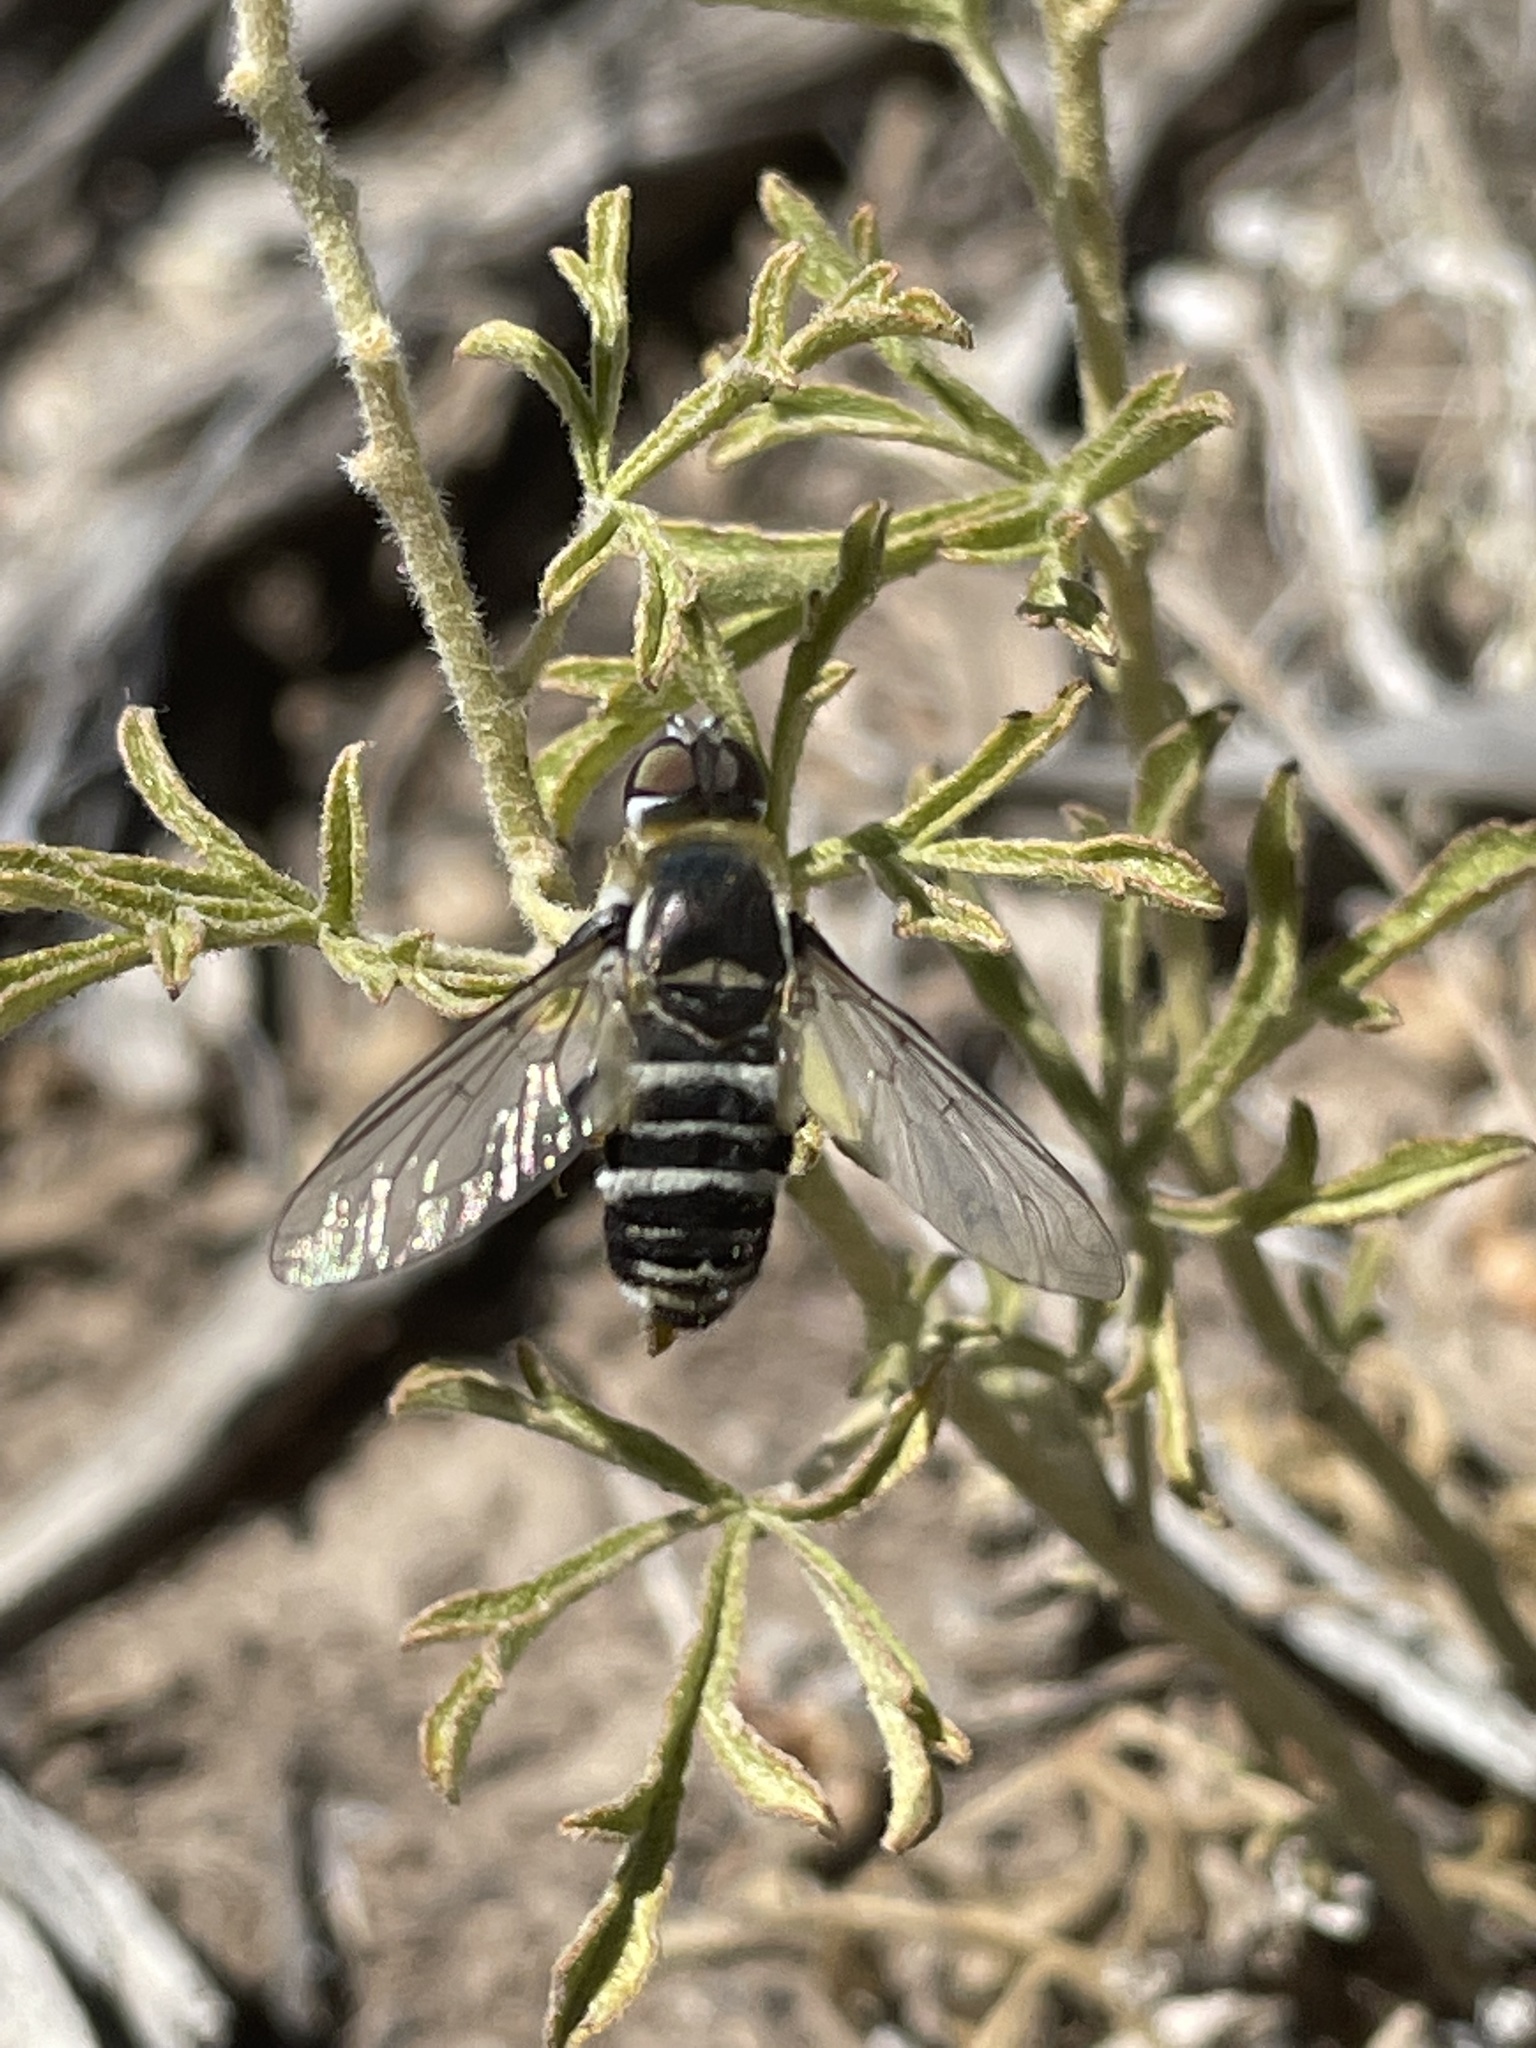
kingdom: Plantae
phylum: Tracheophyta
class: Magnoliopsida
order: Malvales
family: Malvaceae
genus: Sphaeralcea
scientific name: Sphaeralcea coccinea
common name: Moss-rose
